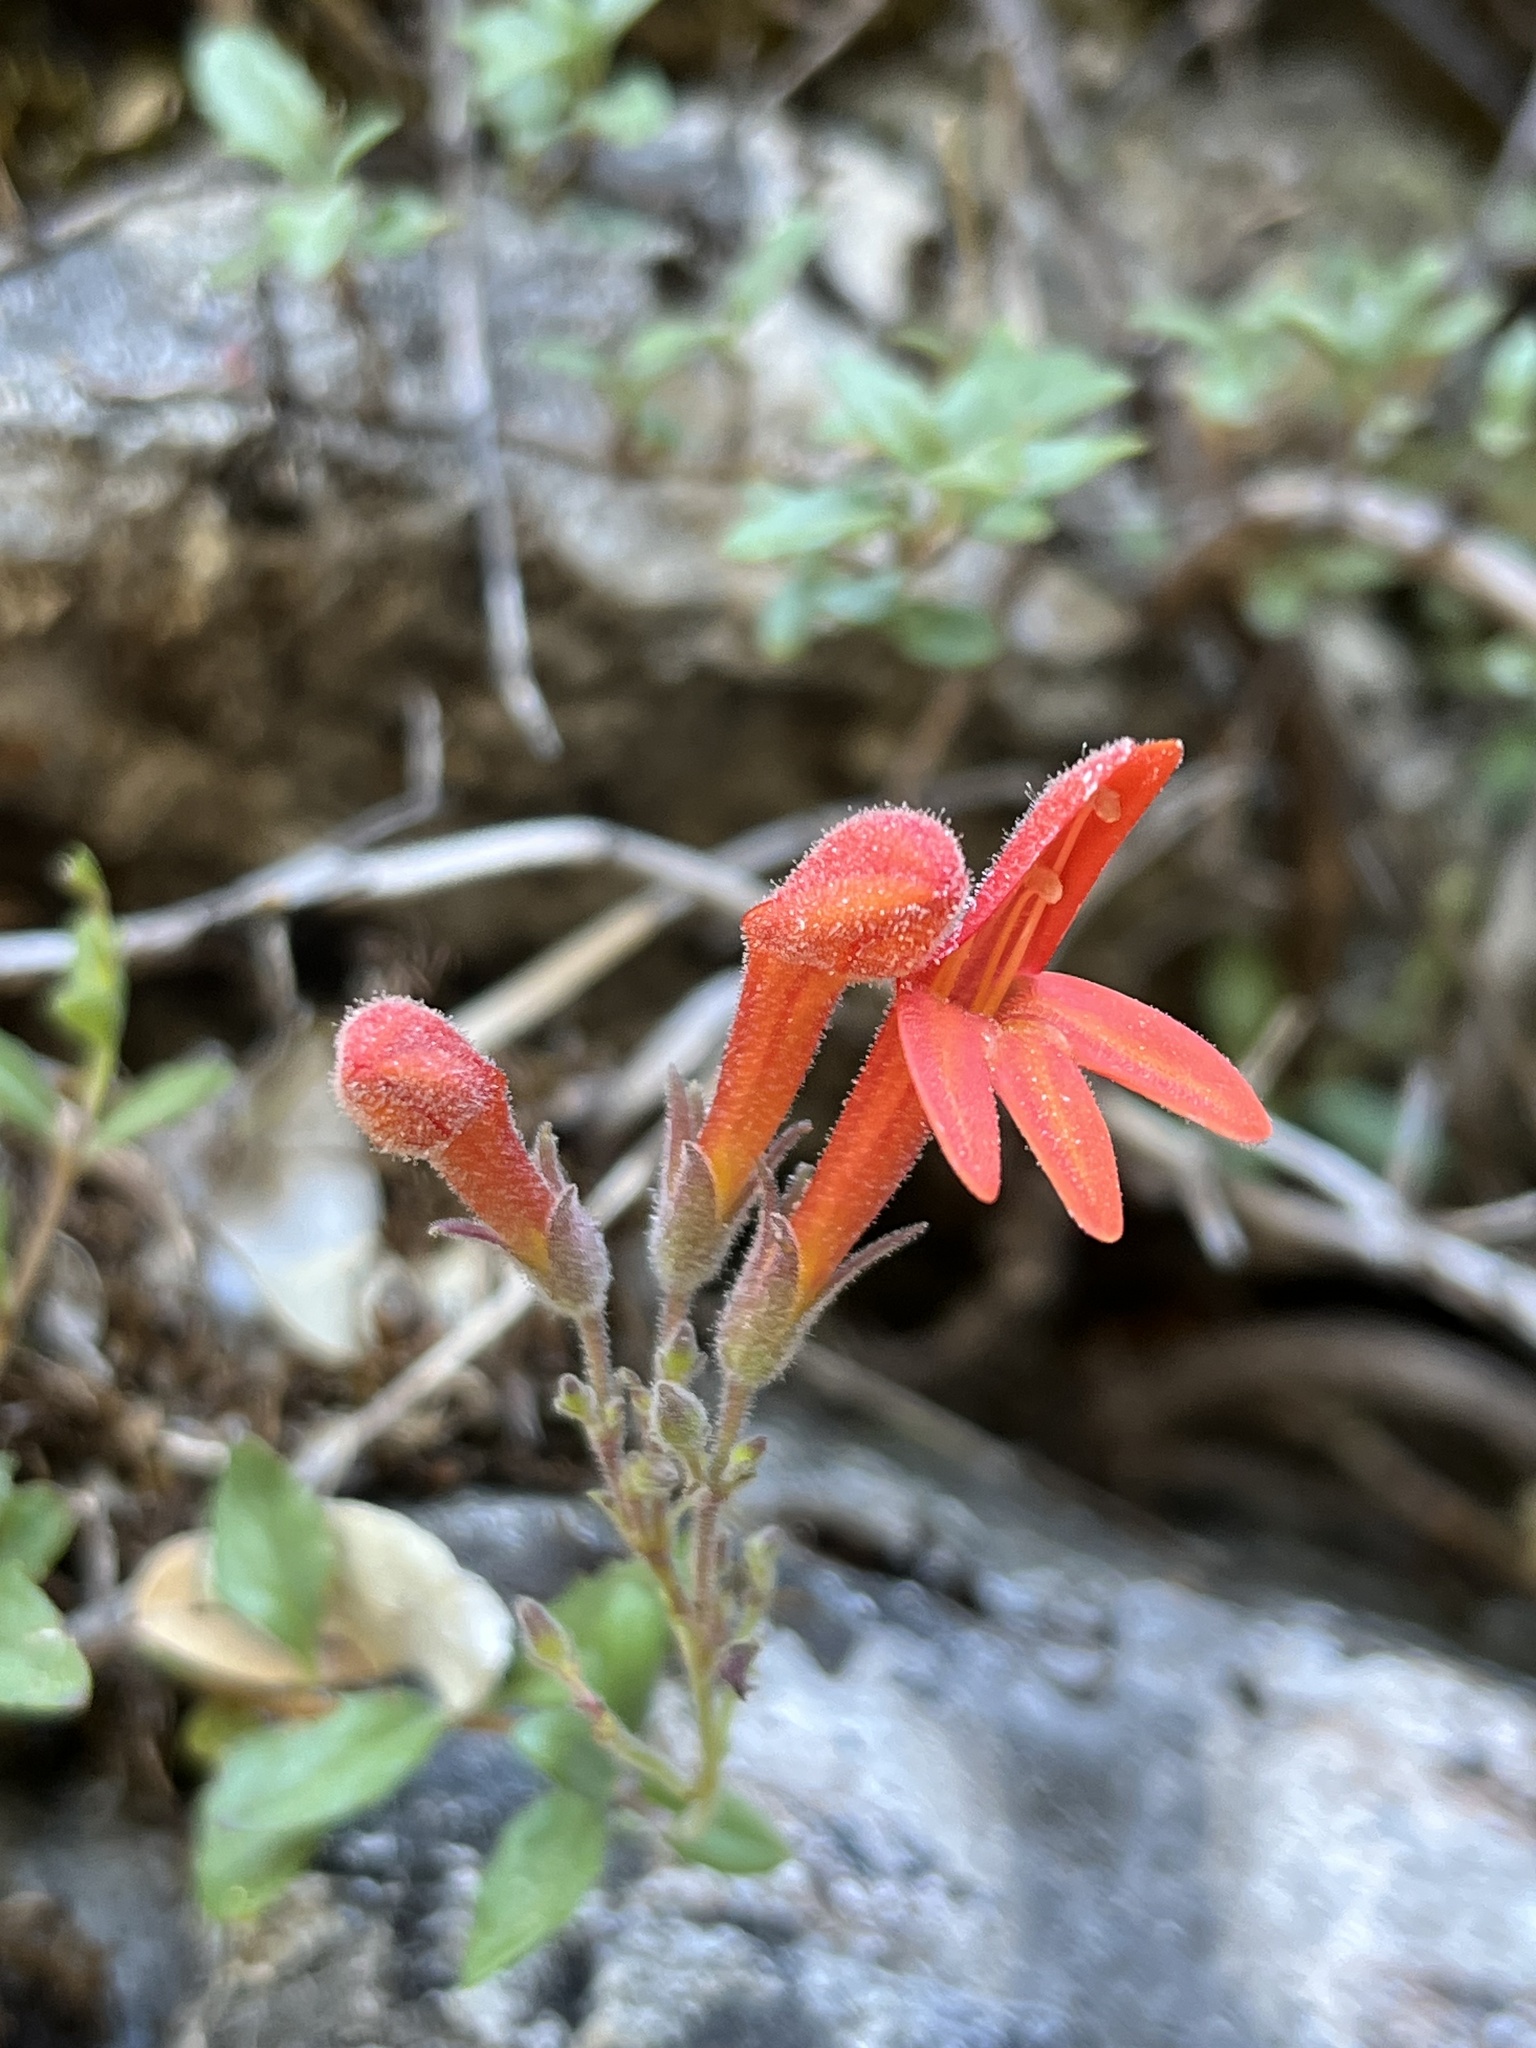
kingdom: Plantae
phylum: Tracheophyta
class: Magnoliopsida
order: Lamiales
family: Plantaginaceae
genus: Keckiella
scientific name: Keckiella corymbosa
